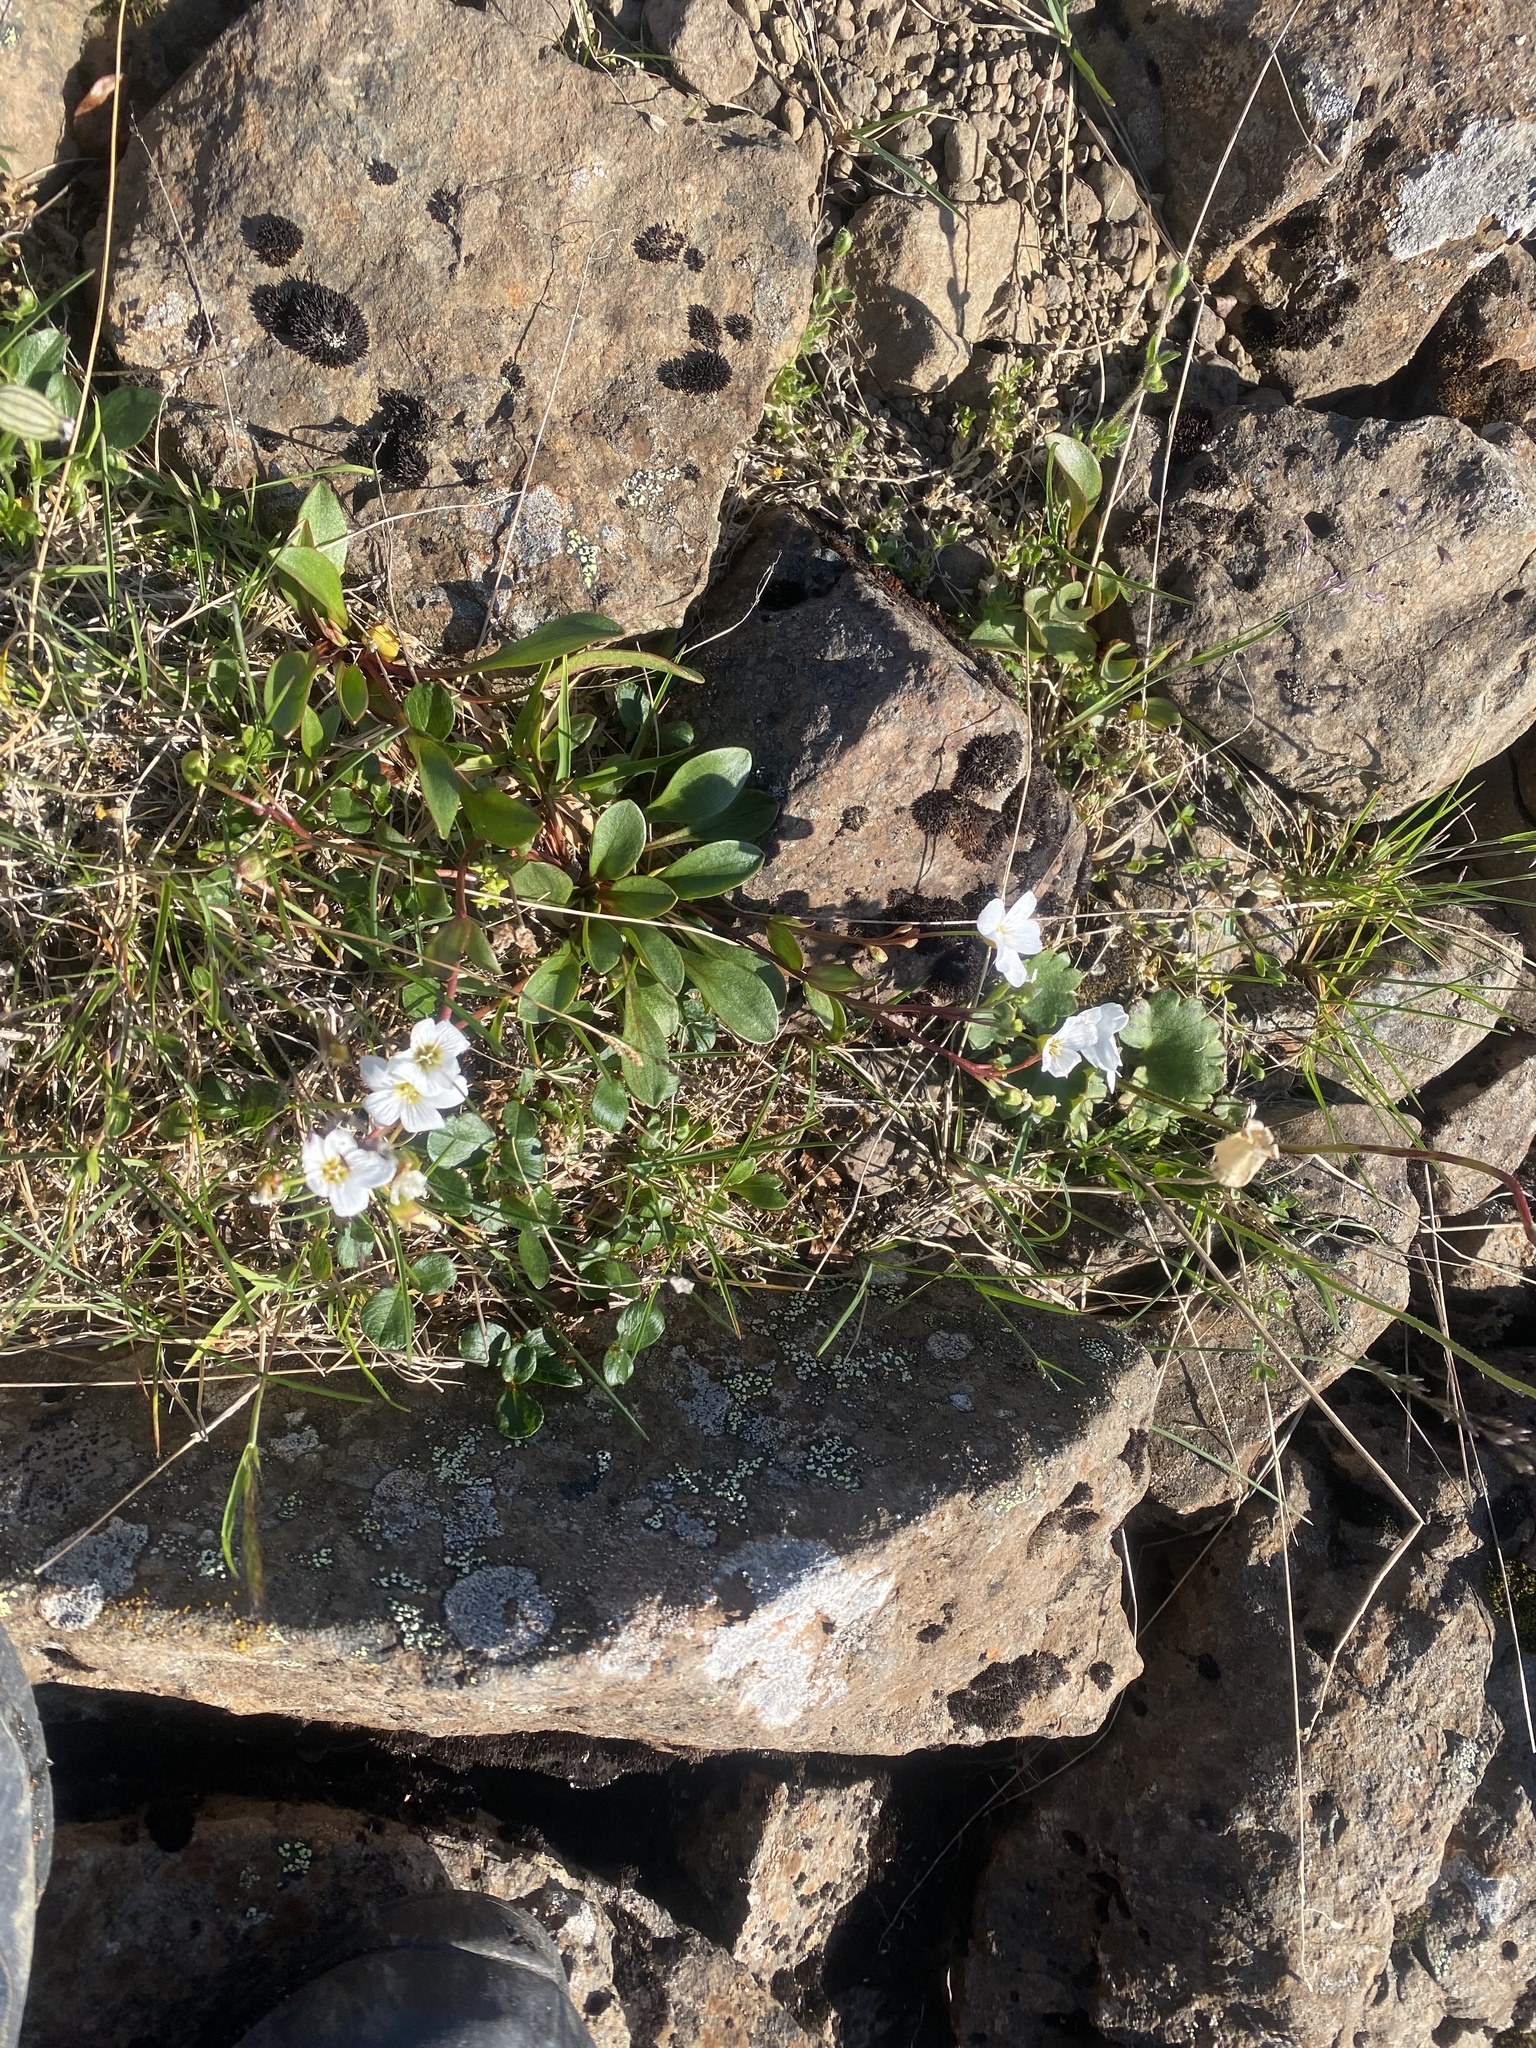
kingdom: Plantae
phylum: Tracheophyta
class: Magnoliopsida
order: Caryophyllales
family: Montiaceae
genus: Claytonia
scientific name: Claytonia joanneana
